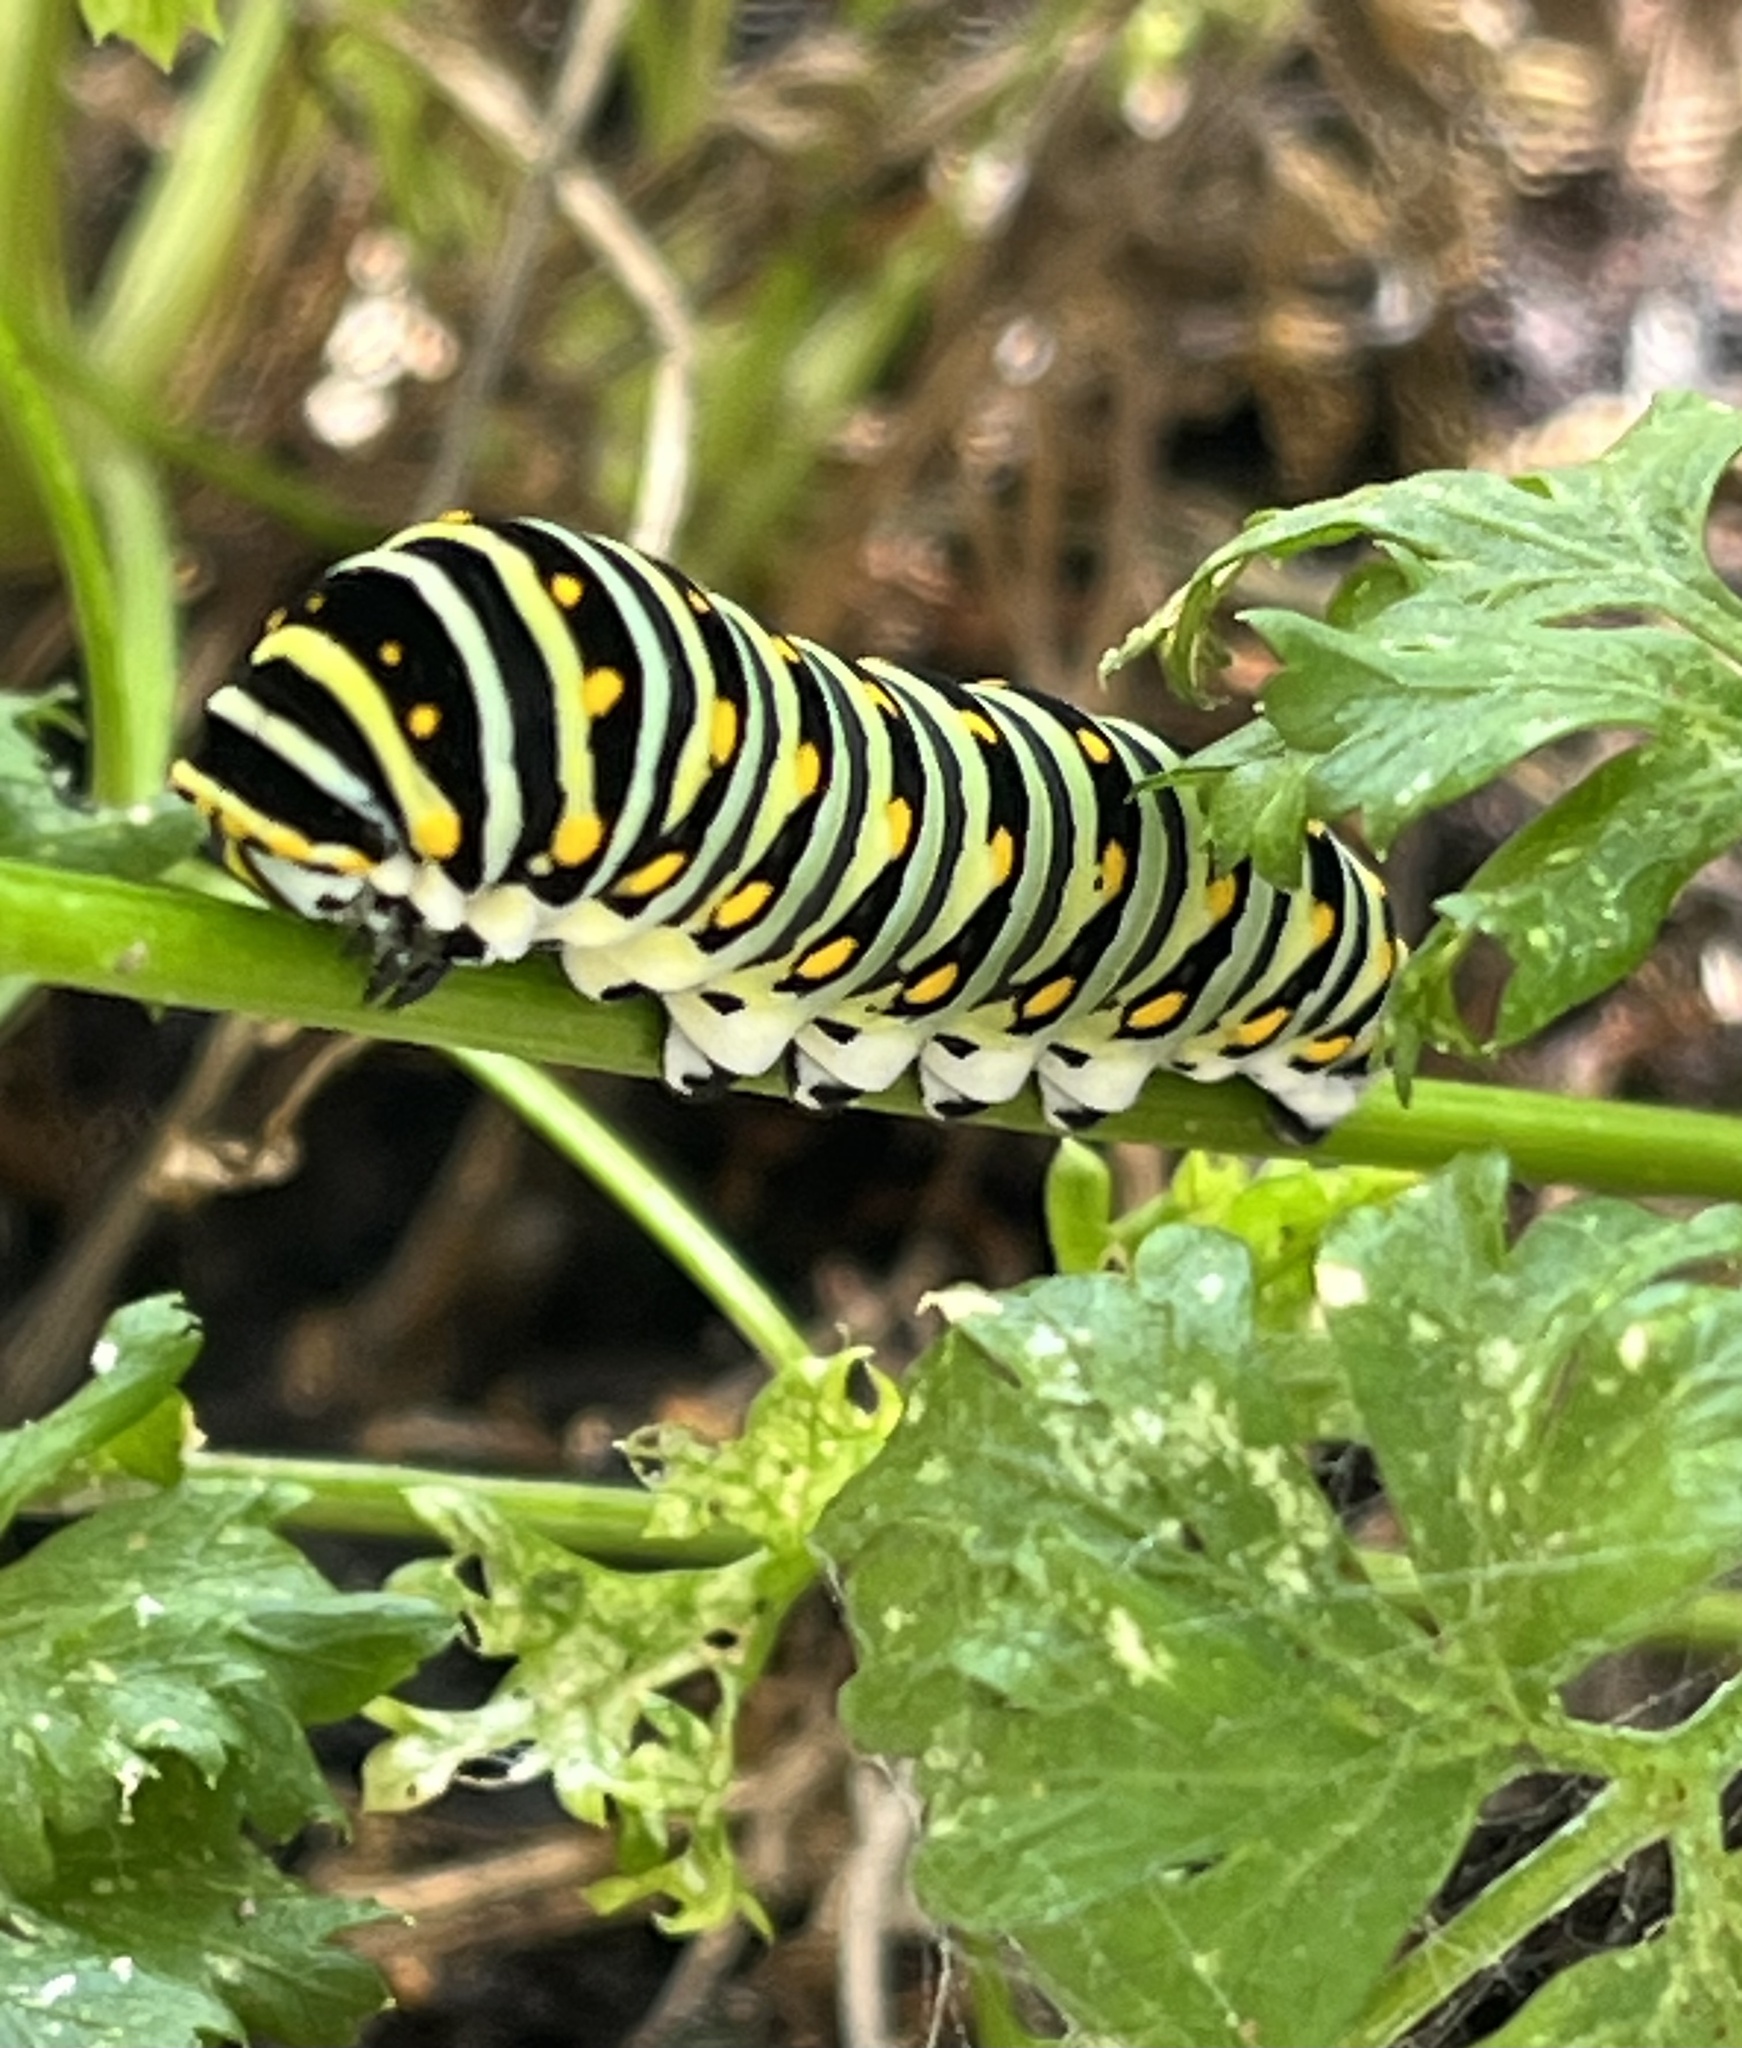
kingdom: Animalia
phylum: Arthropoda
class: Insecta
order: Lepidoptera
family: Papilionidae
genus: Papilio
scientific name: Papilio polyxenes
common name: Black swallowtail
